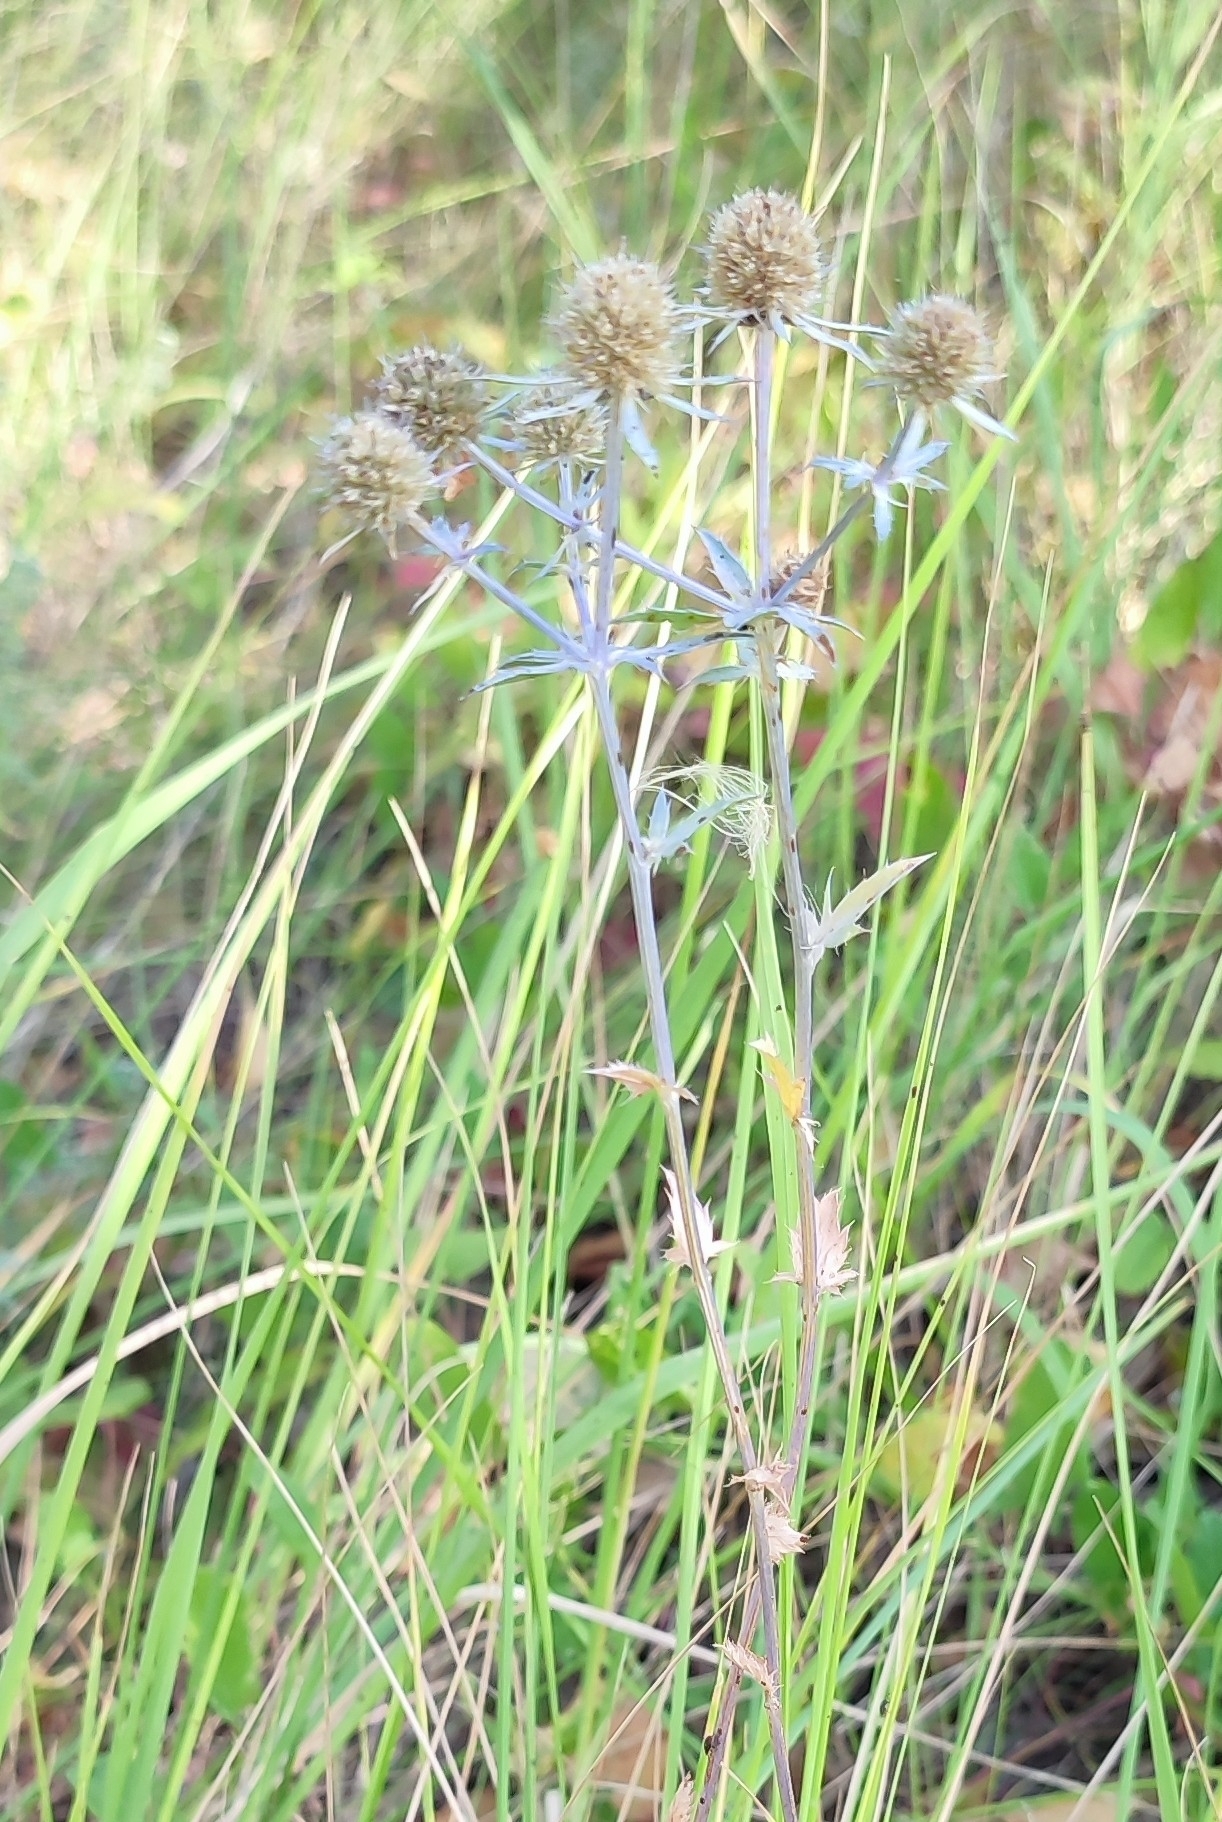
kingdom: Plantae
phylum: Tracheophyta
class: Magnoliopsida
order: Apiales
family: Apiaceae
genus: Eryngium
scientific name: Eryngium planum
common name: Blue eryngo
